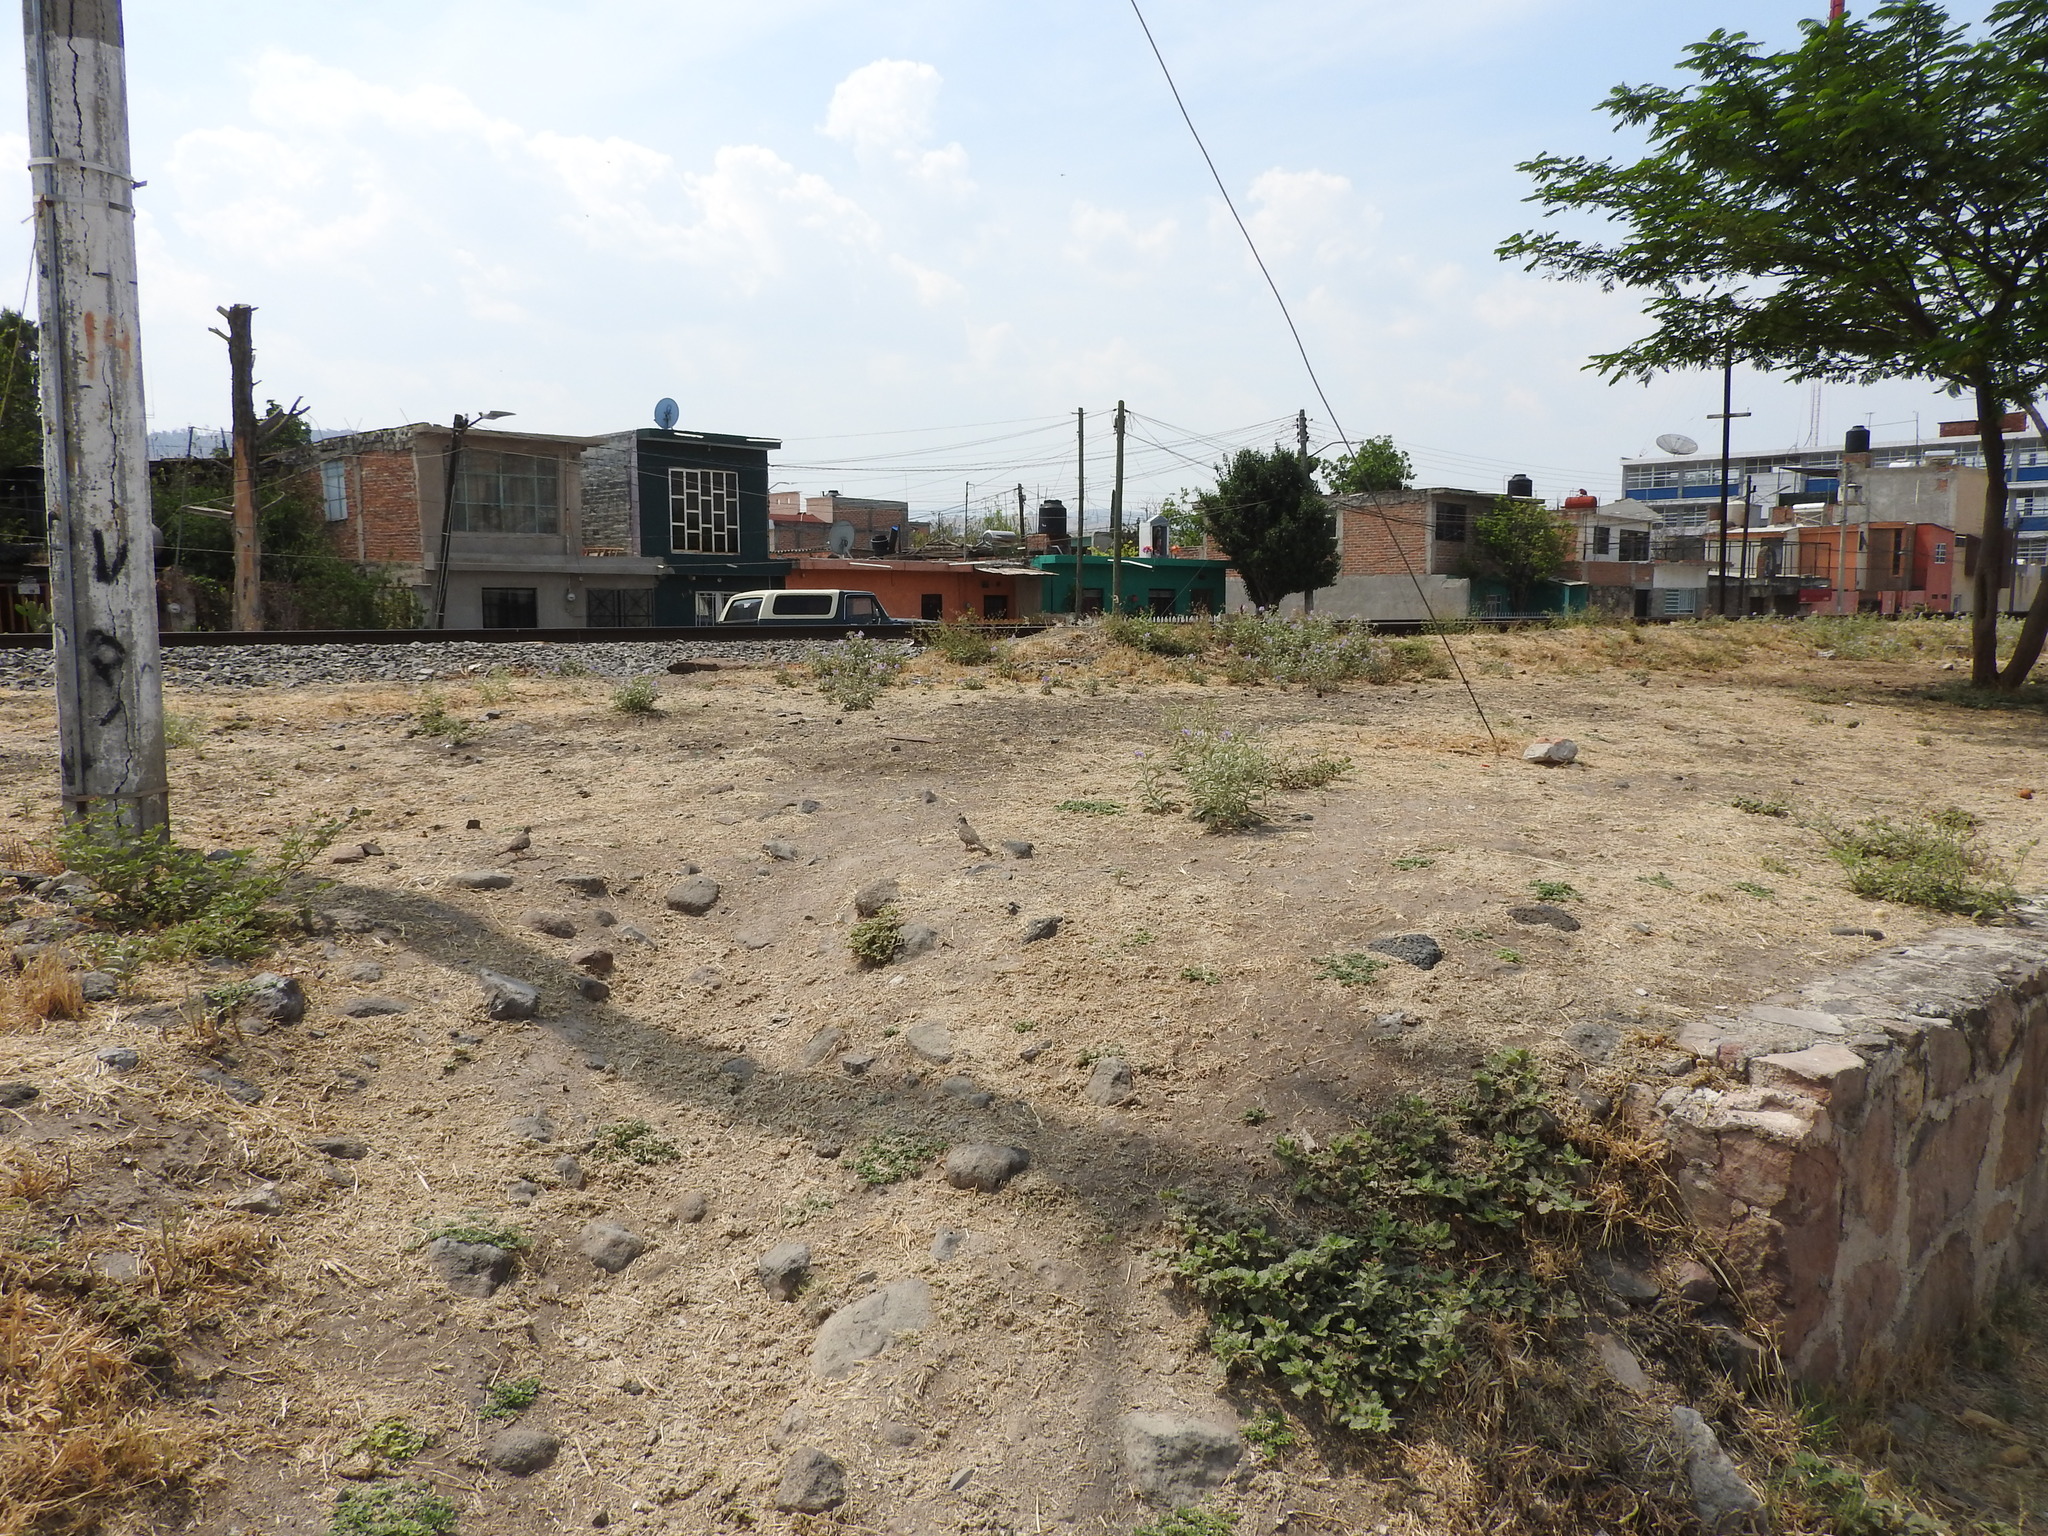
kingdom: Animalia
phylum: Chordata
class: Aves
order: Columbiformes
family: Columbidae
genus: Columbina
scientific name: Columbina inca
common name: Inca dove
